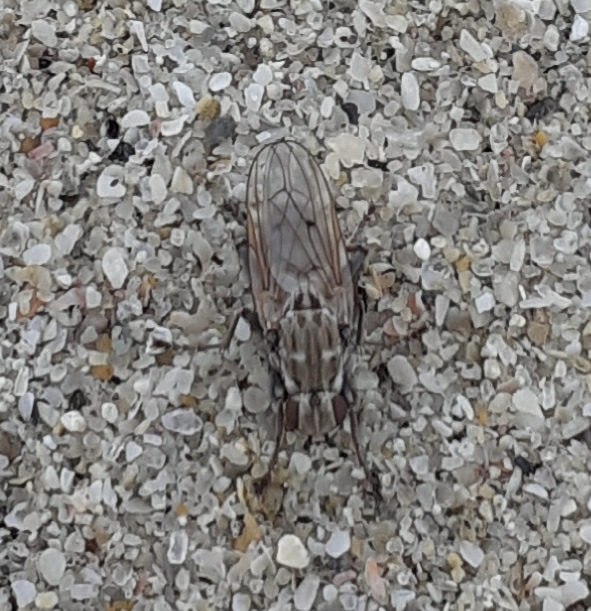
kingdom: Animalia
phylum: Arthropoda
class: Insecta
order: Diptera
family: Helcomyzidae
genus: Helcomyza
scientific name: Helcomyza ustulata
